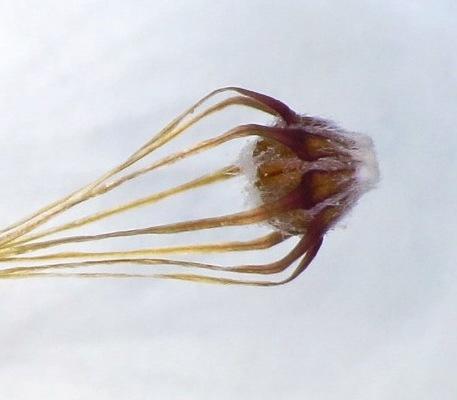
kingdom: Plantae
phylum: Tracheophyta
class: Magnoliopsida
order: Ericales
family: Ericaceae
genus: Erica
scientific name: Erica retorta
